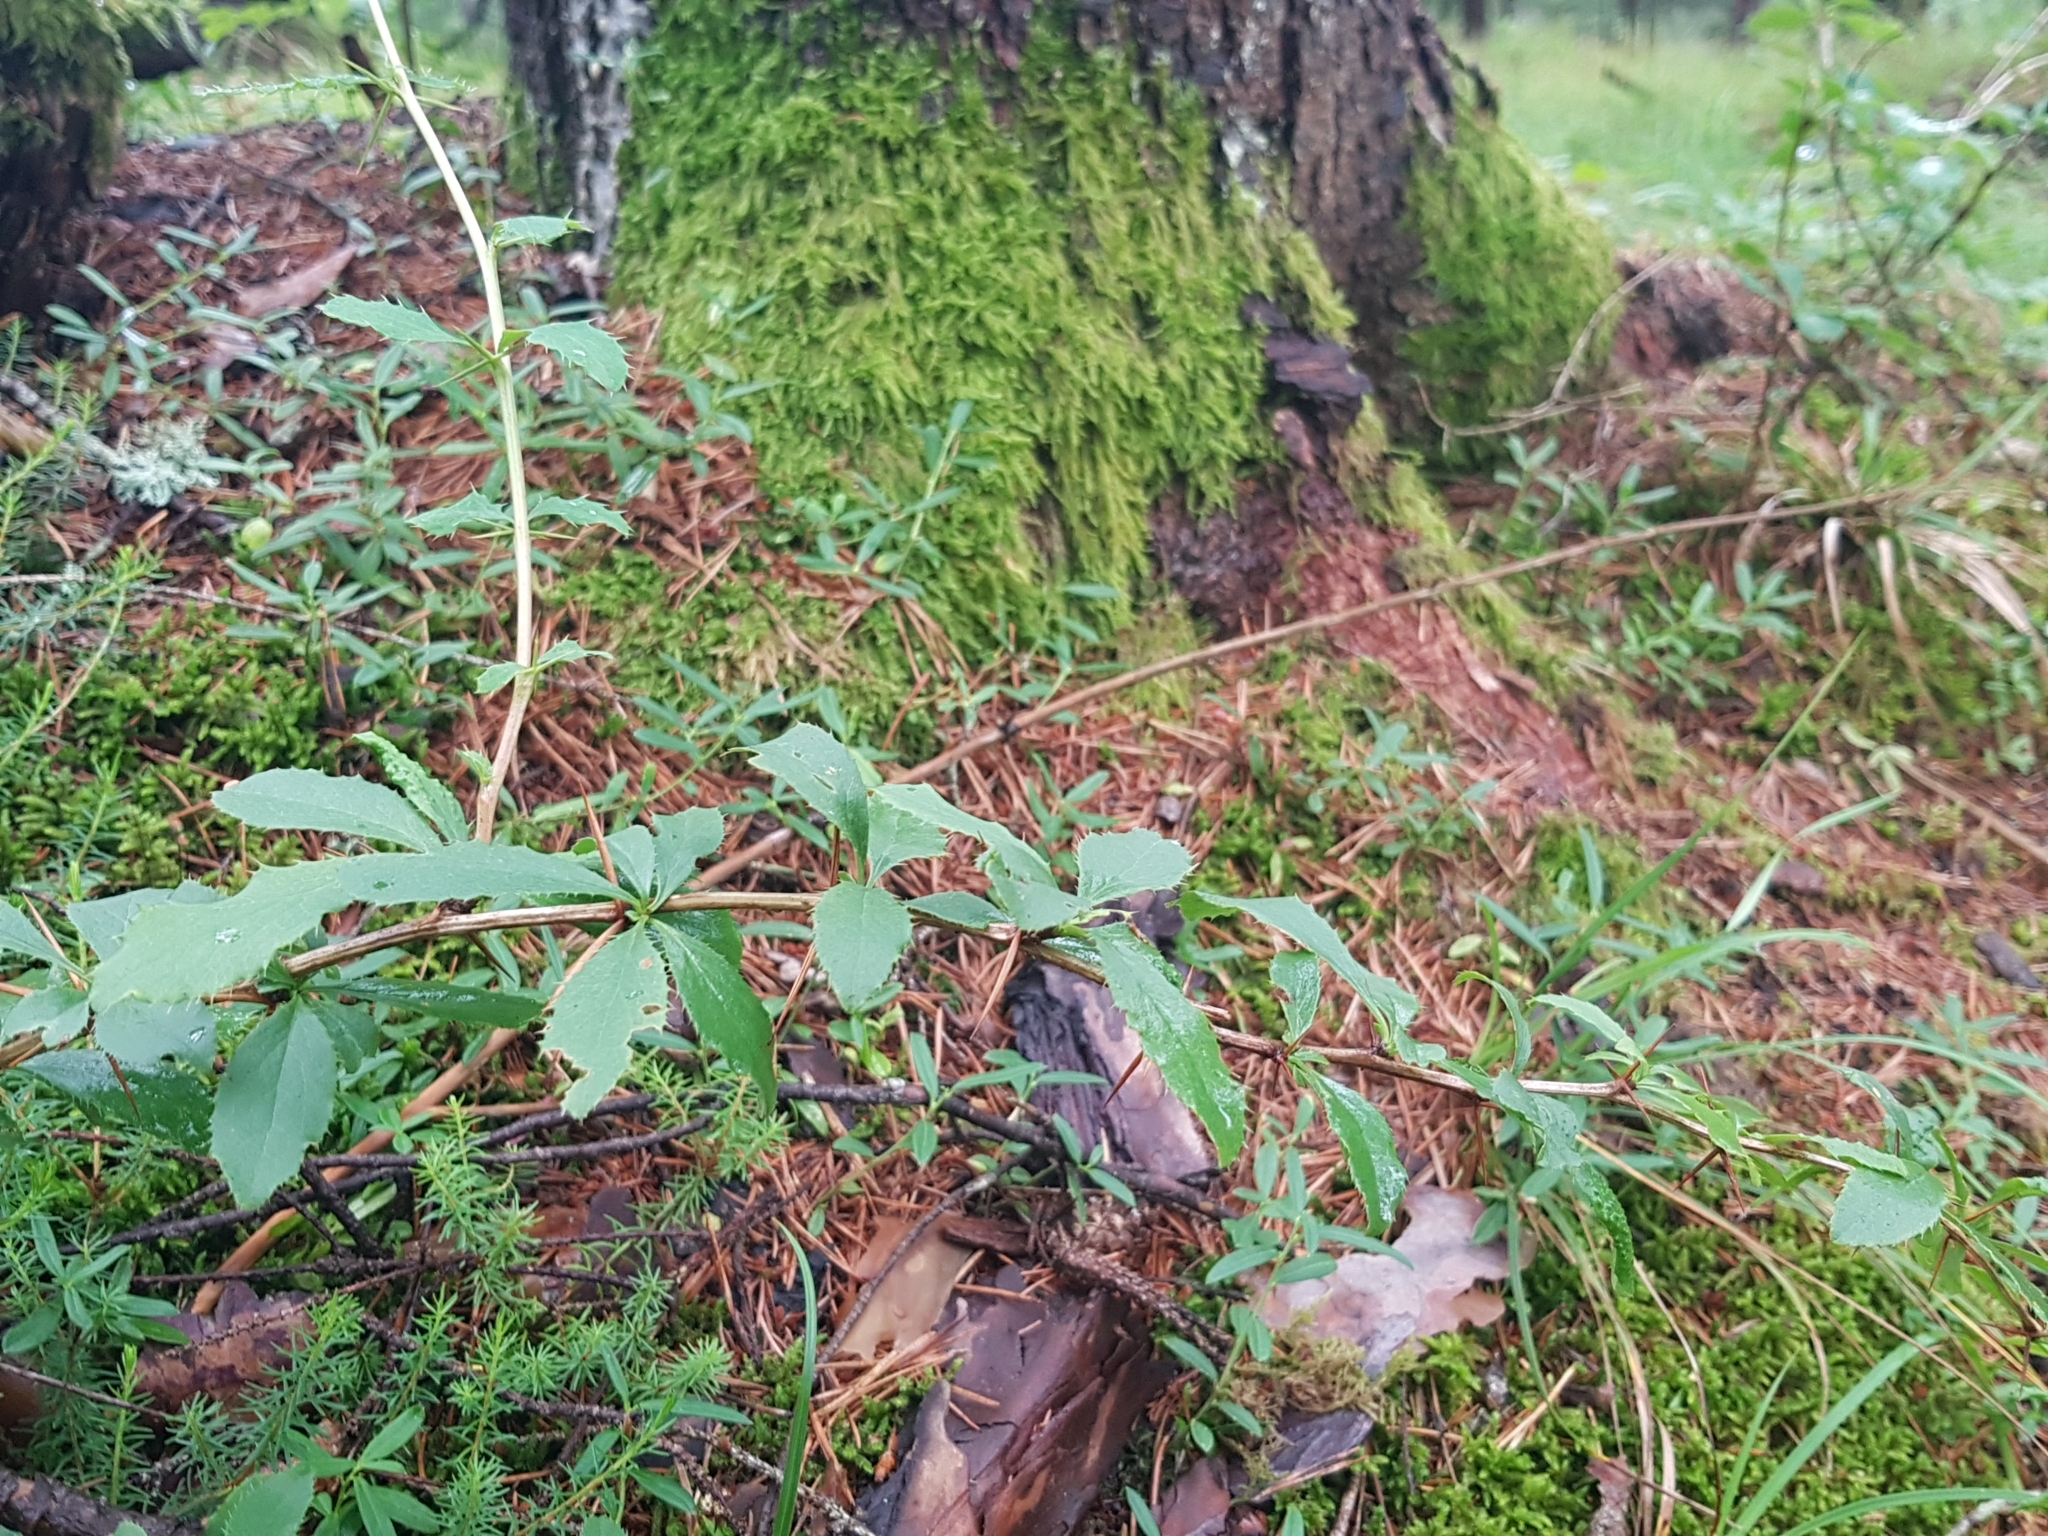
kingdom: Plantae
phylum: Tracheophyta
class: Magnoliopsida
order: Ranunculales
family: Berberidaceae
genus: Berberis
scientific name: Berberis vulgaris
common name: Barberry
